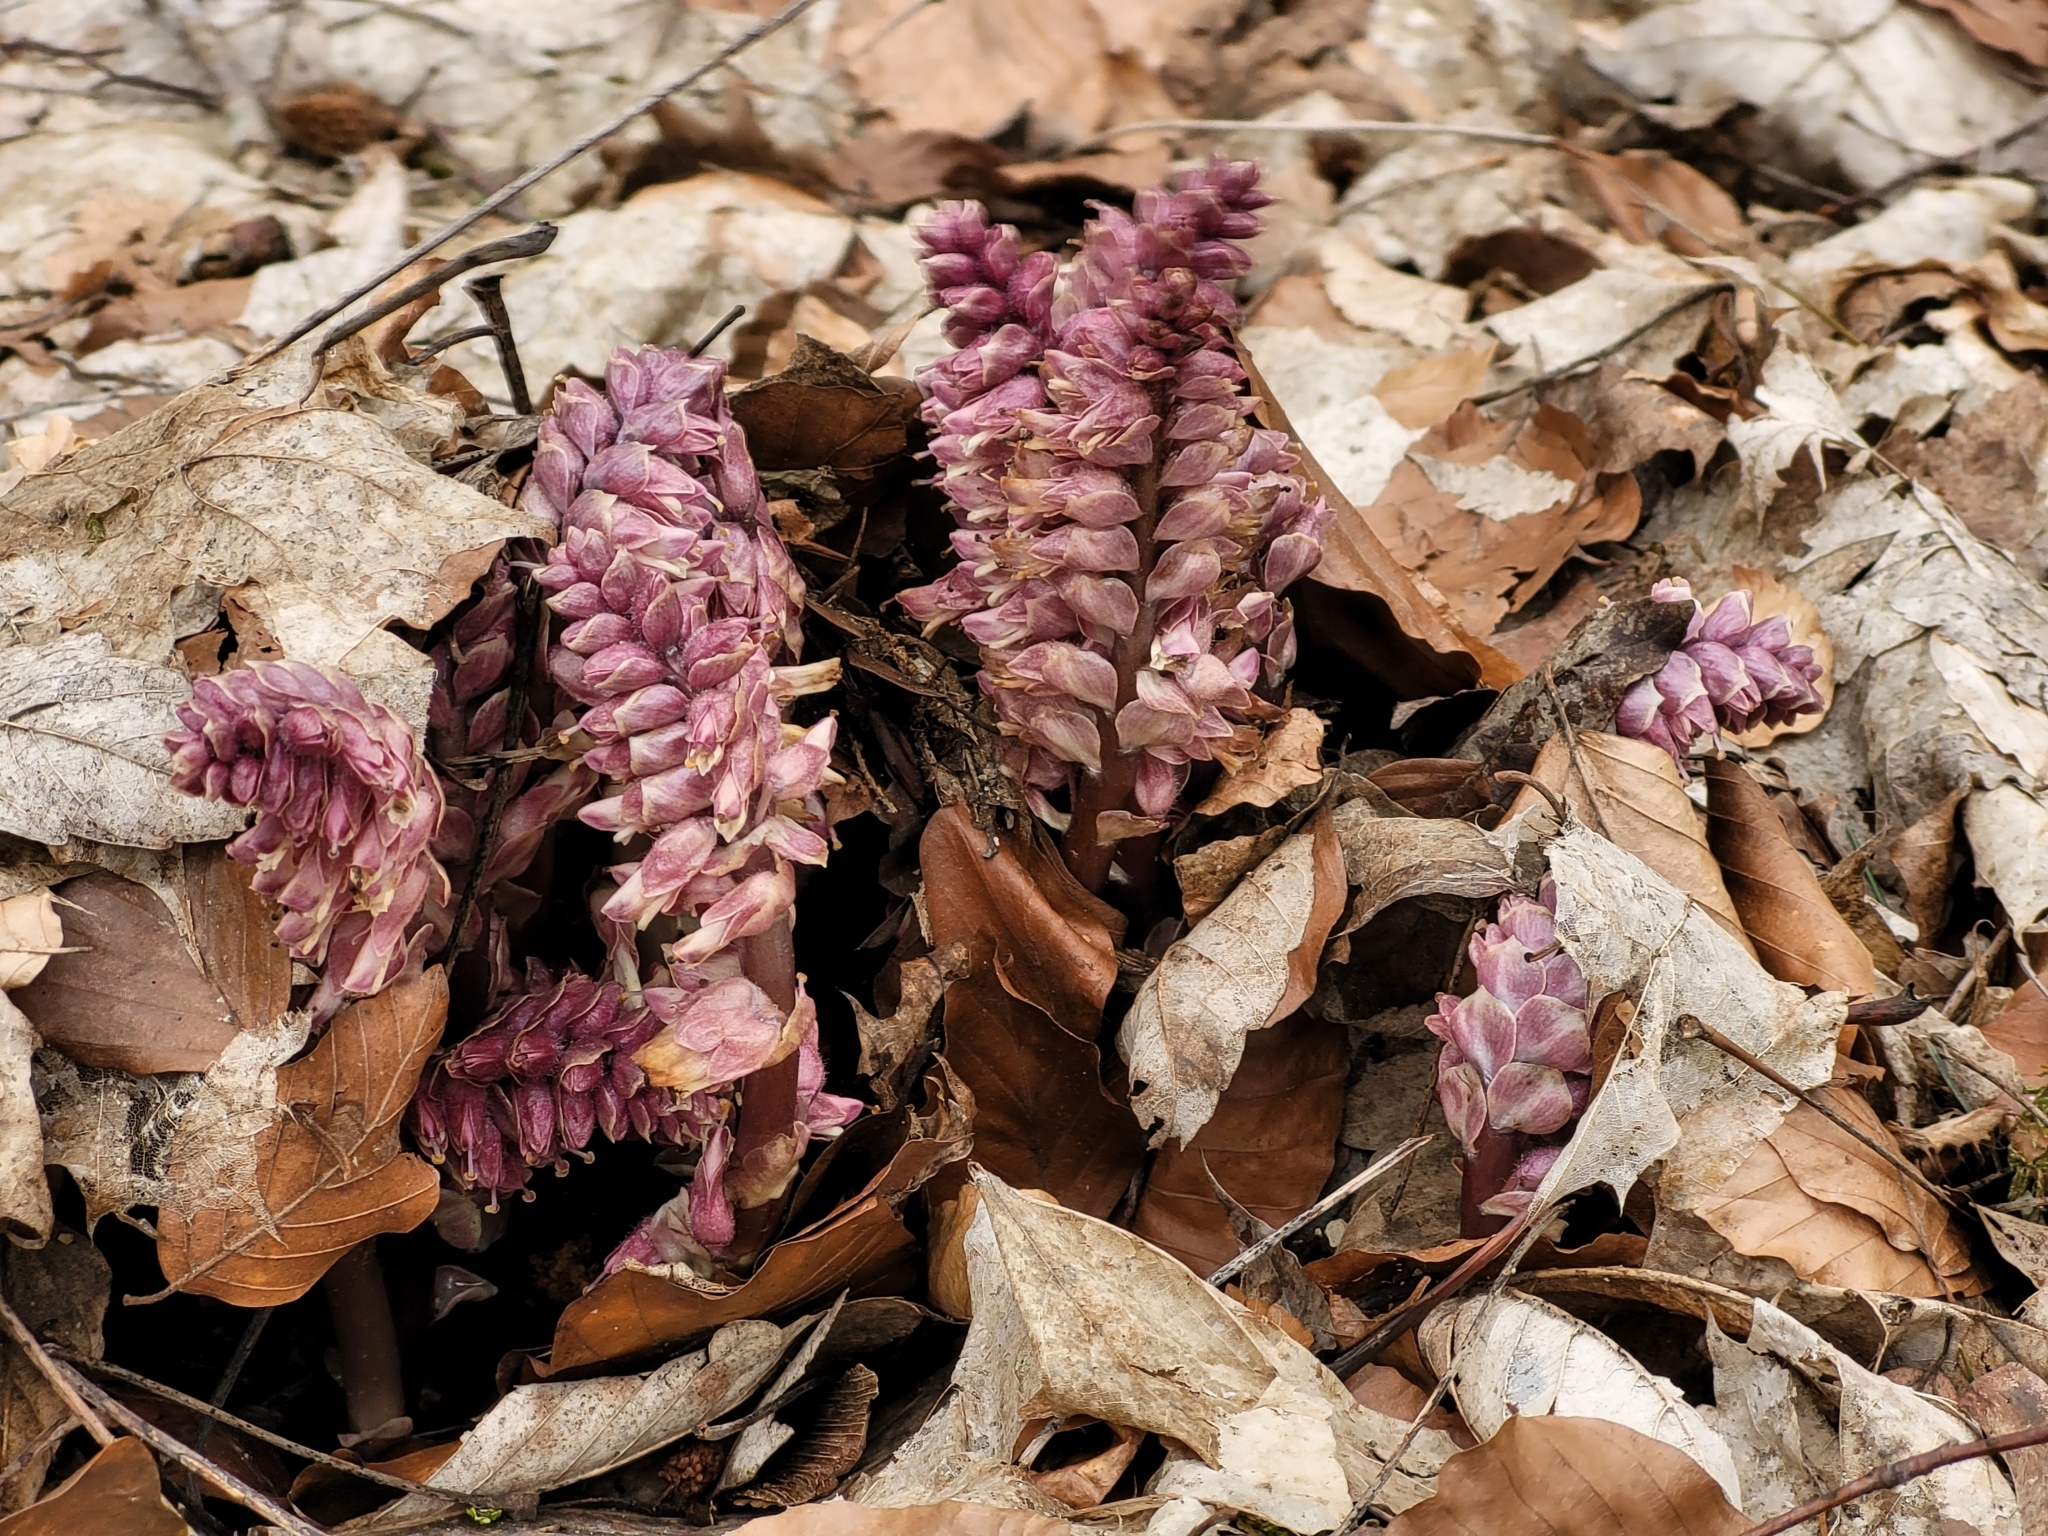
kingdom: Plantae
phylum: Tracheophyta
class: Magnoliopsida
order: Lamiales
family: Orobanchaceae
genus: Lathraea
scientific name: Lathraea squamaria
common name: Toothwort
